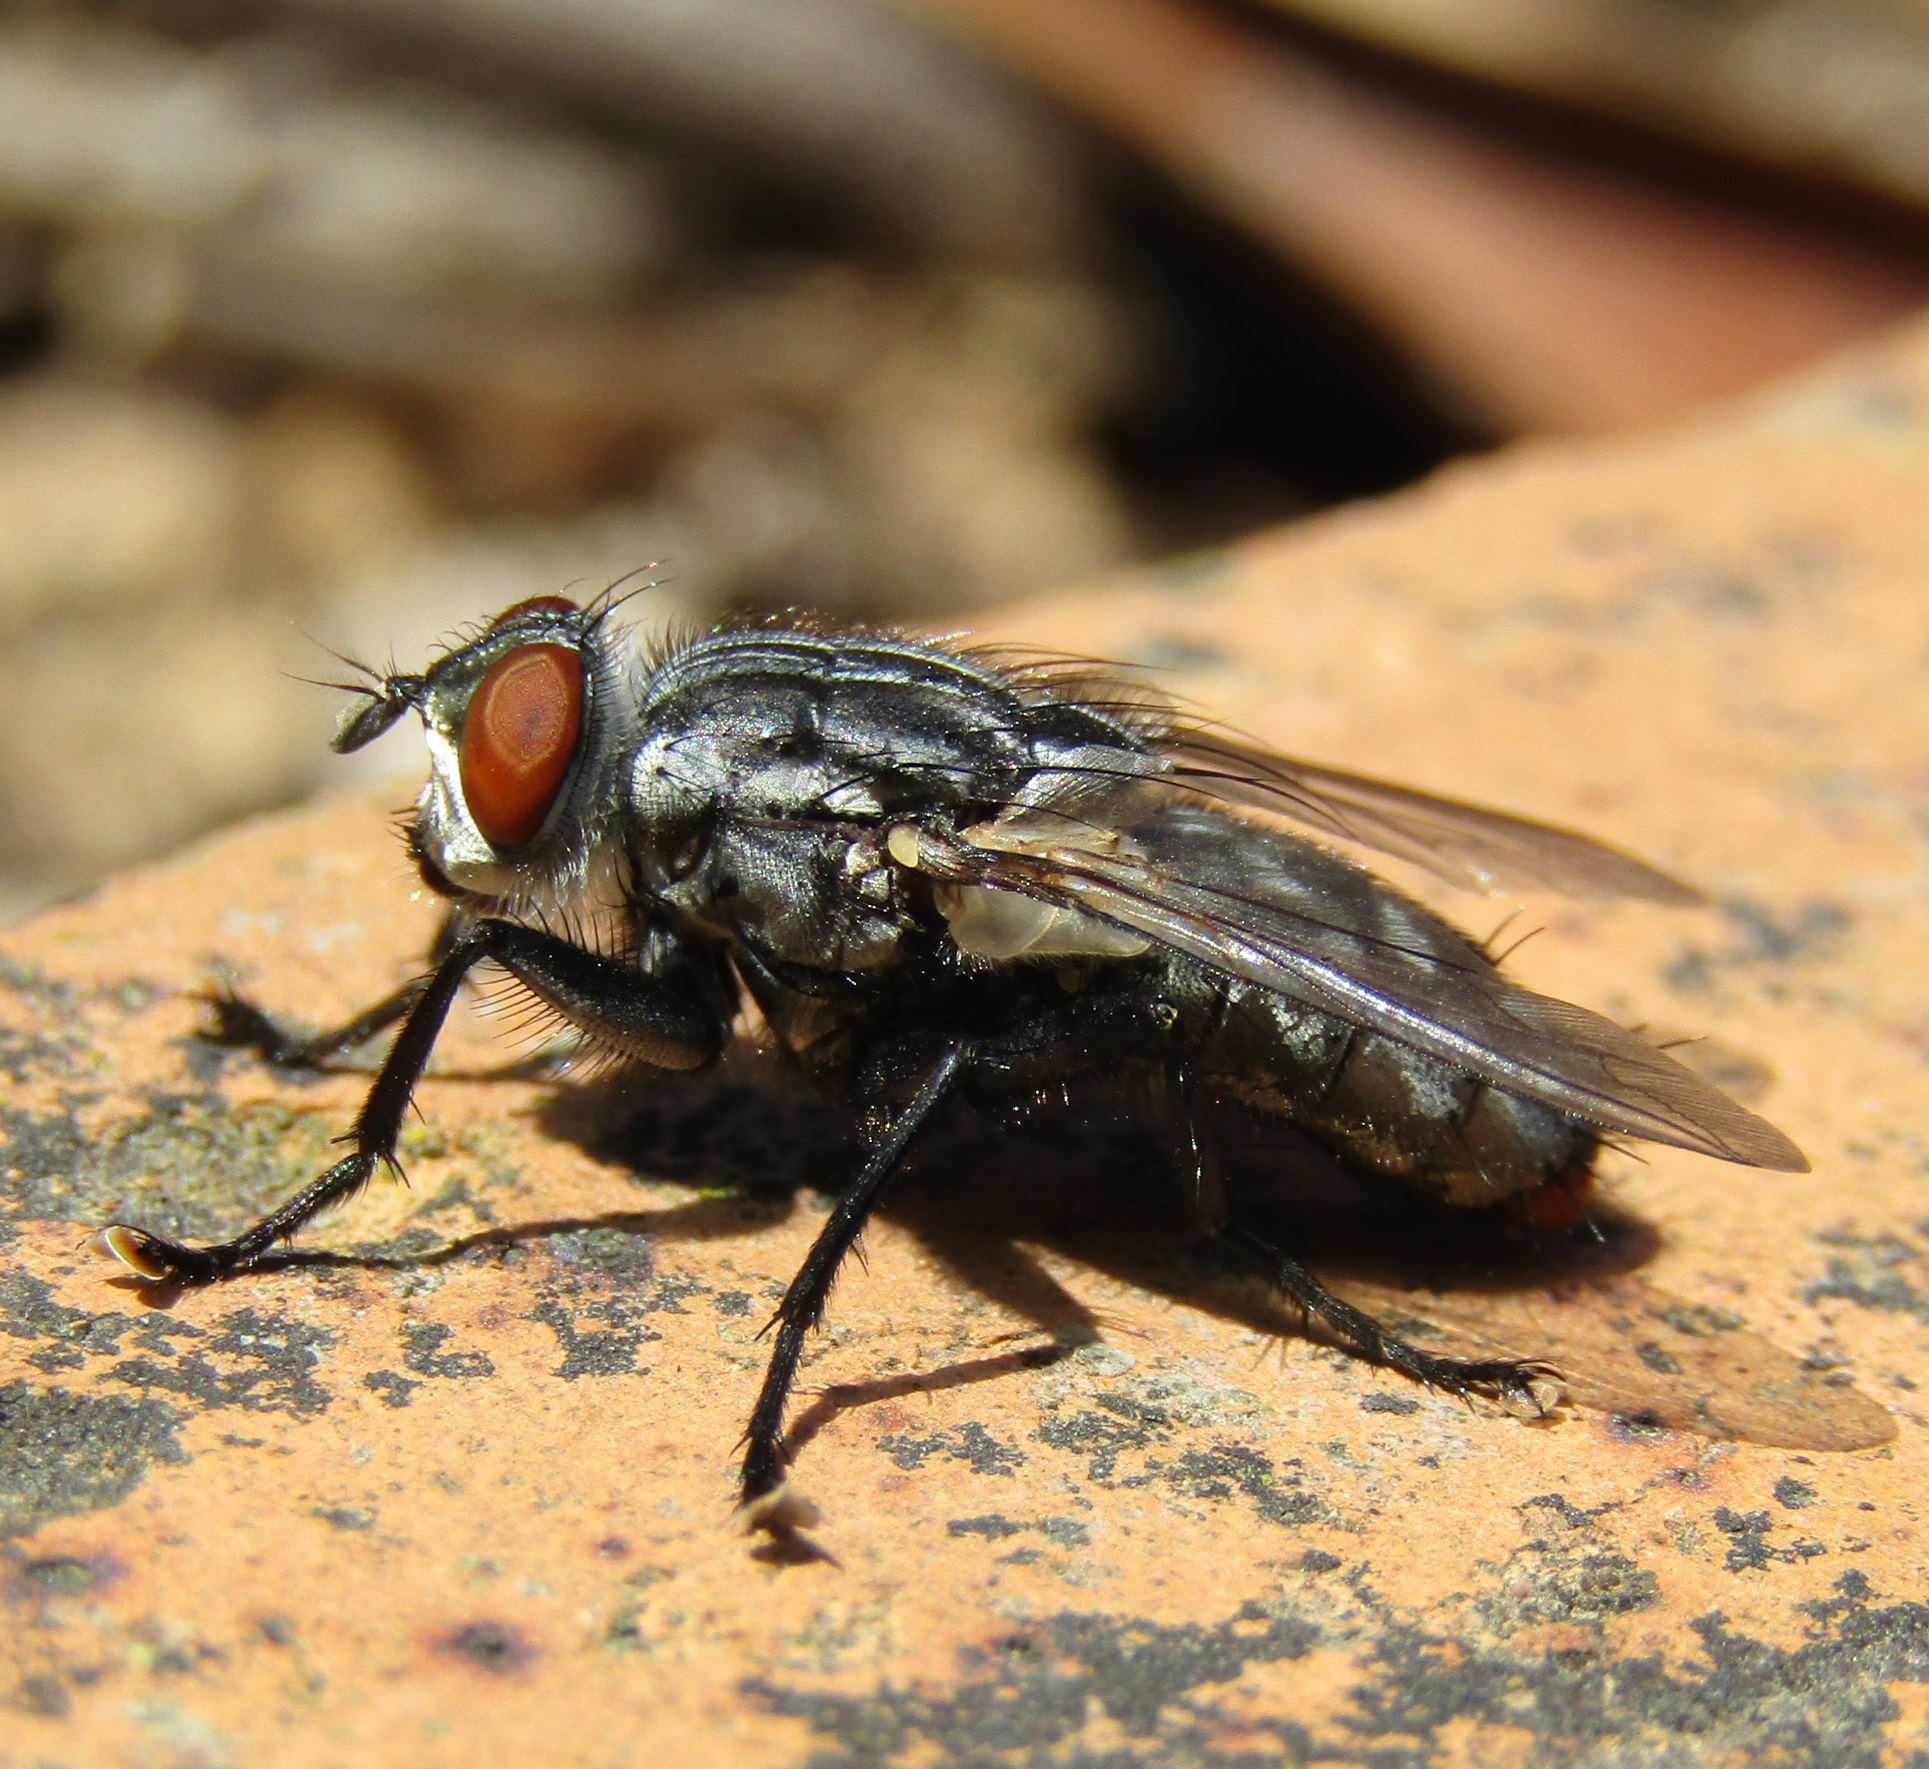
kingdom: Animalia
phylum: Arthropoda
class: Insecta
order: Diptera
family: Sarcophagidae
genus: Sarcophaga
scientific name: Sarcophaga crassipalpis
